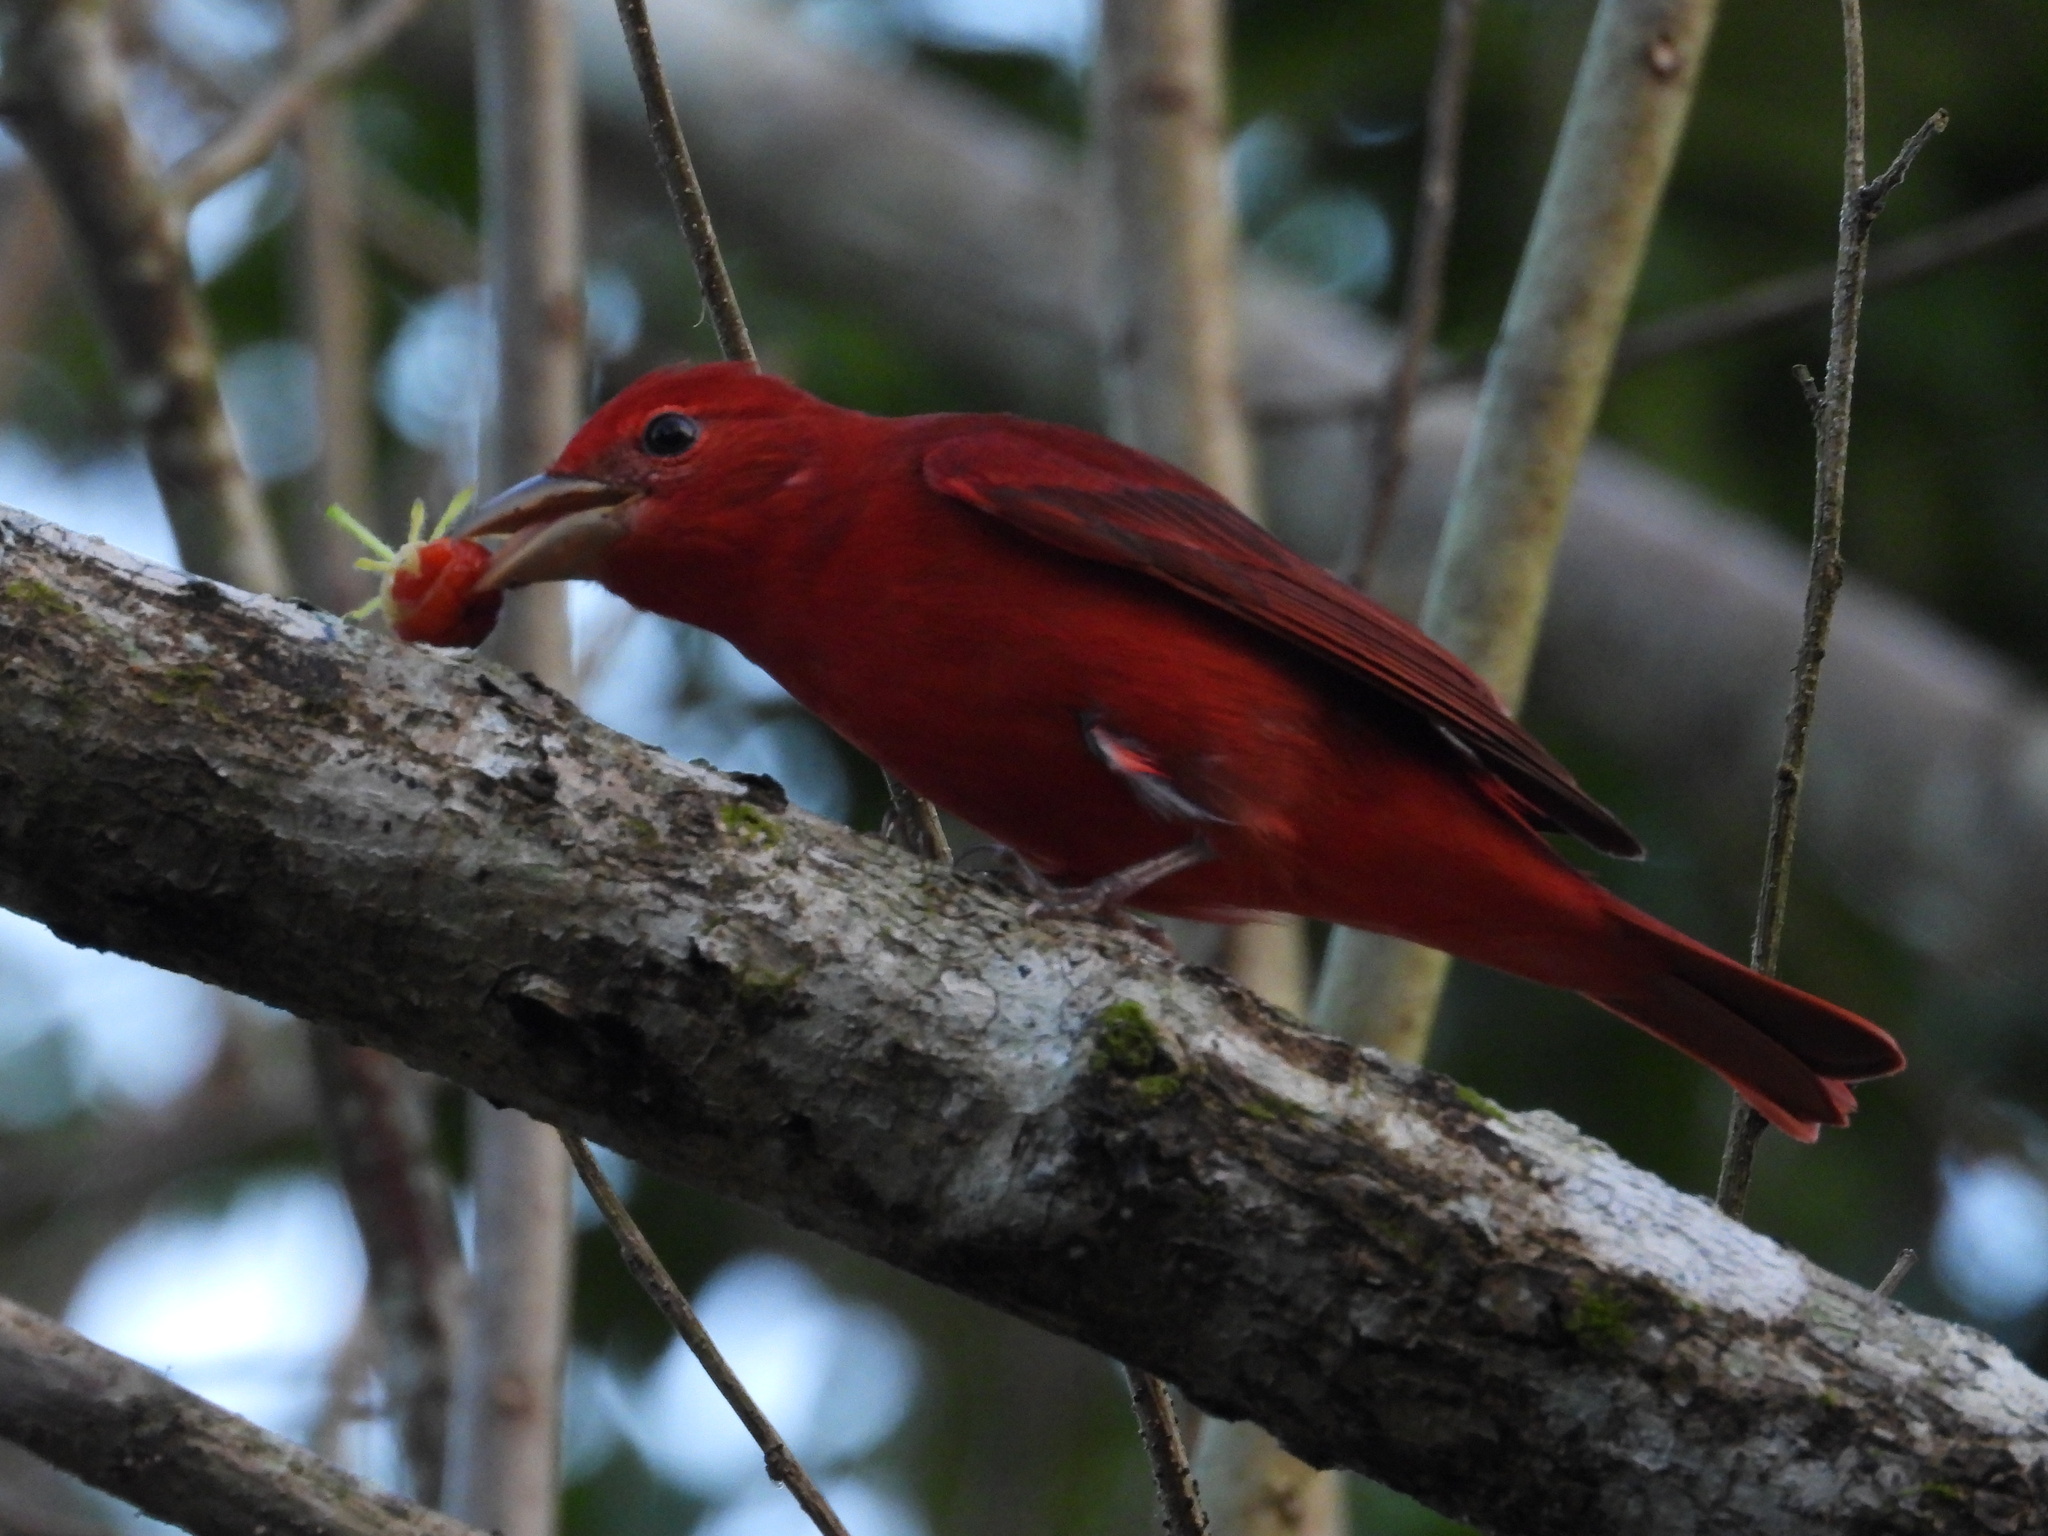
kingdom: Animalia
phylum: Chordata
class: Aves
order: Passeriformes
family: Cardinalidae
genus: Piranga
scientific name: Piranga rubra
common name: Summer tanager
